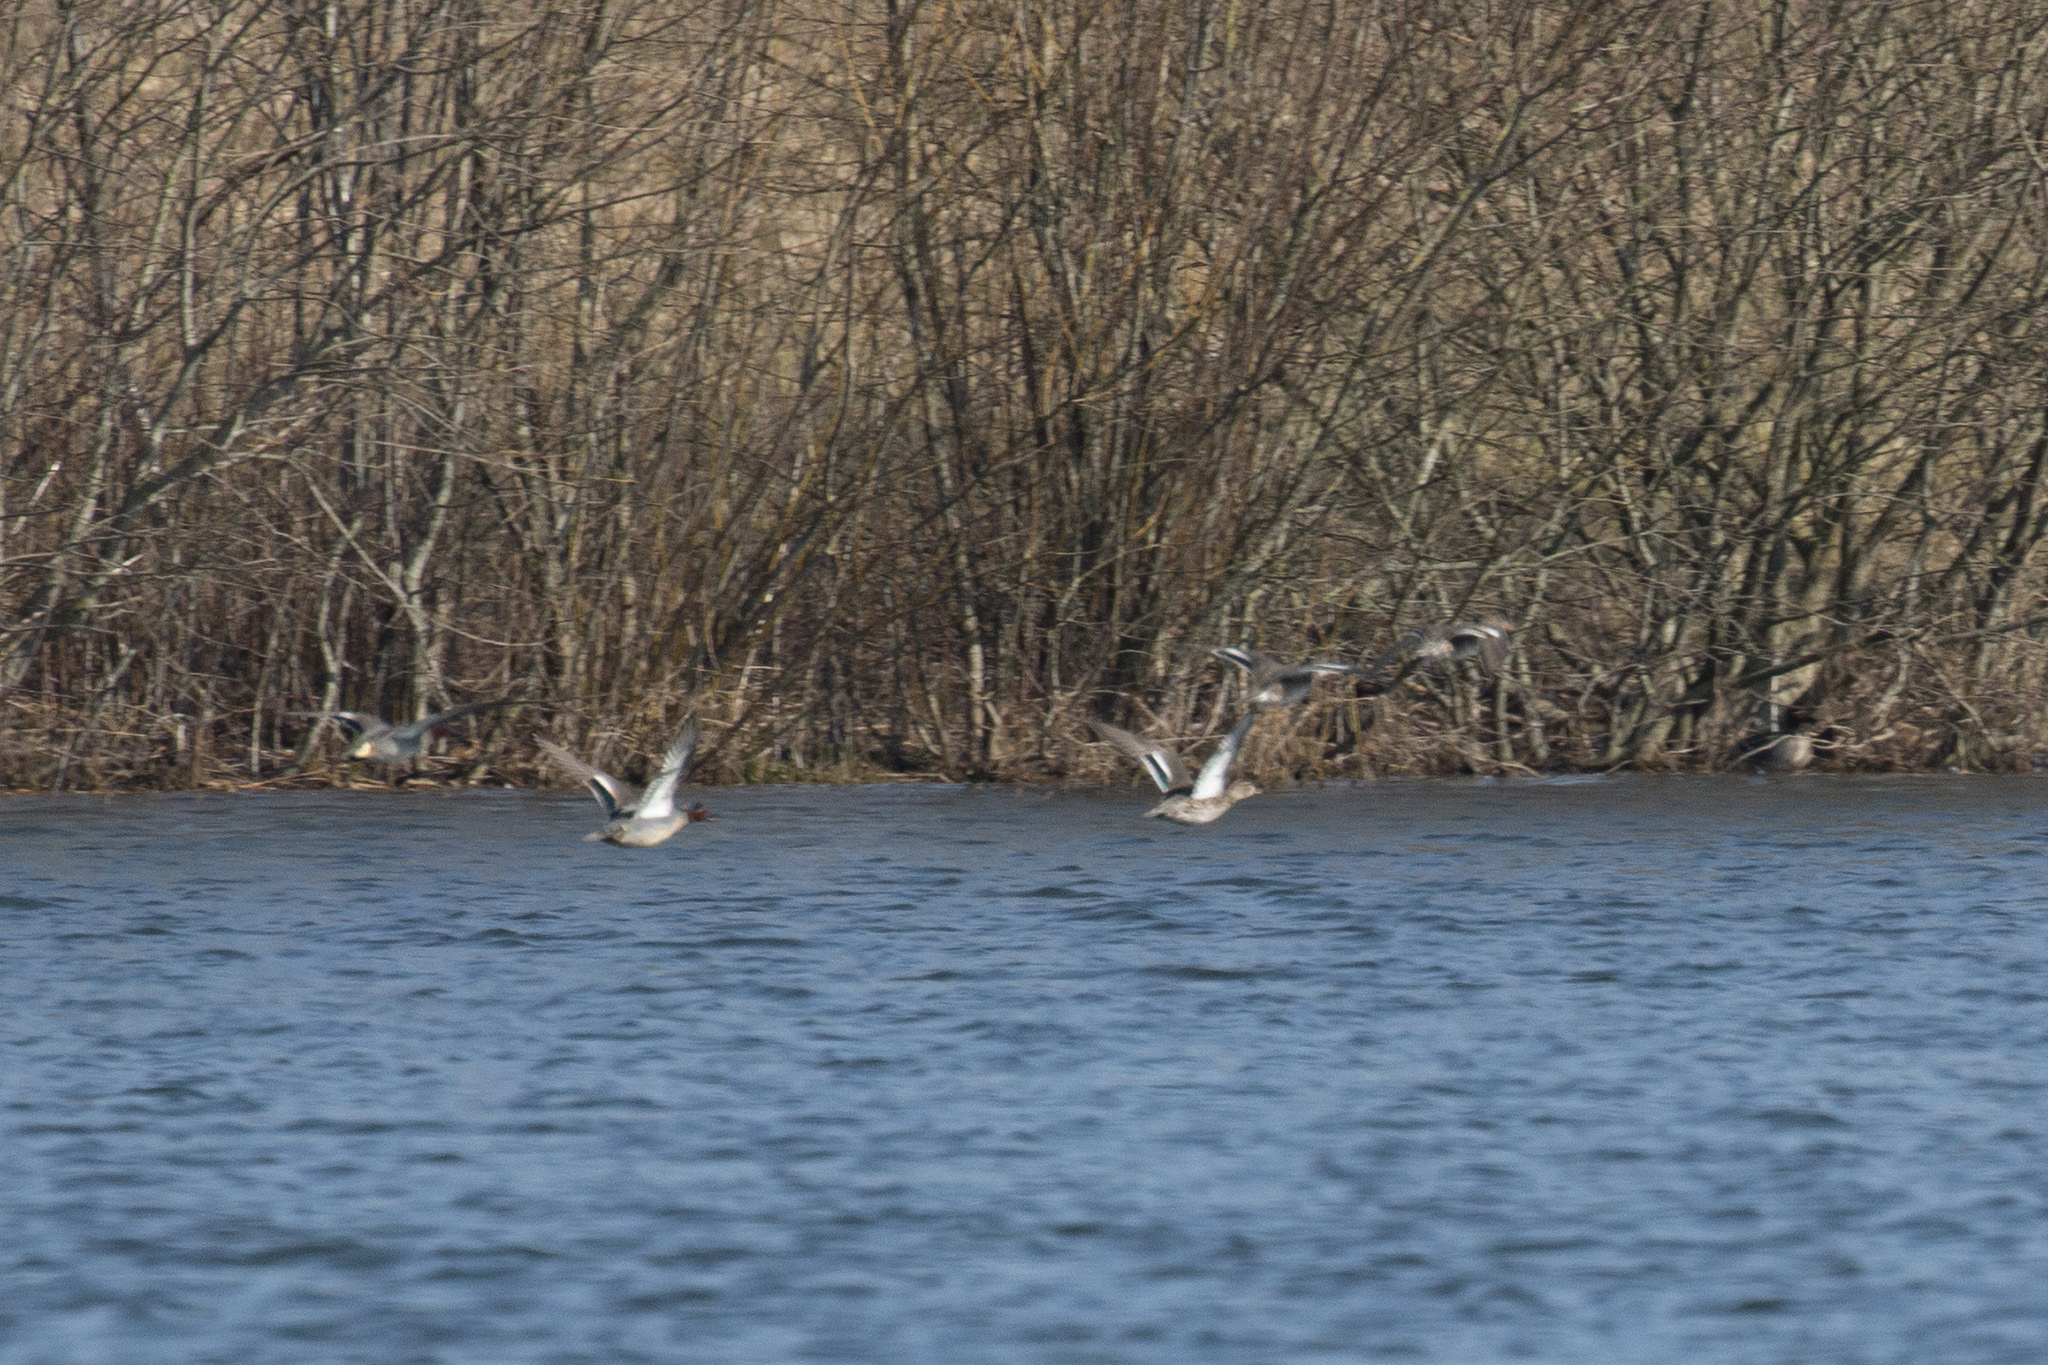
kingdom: Animalia
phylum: Chordata
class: Aves
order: Anseriformes
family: Anatidae
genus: Anas
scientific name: Anas crecca
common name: Eurasian teal
